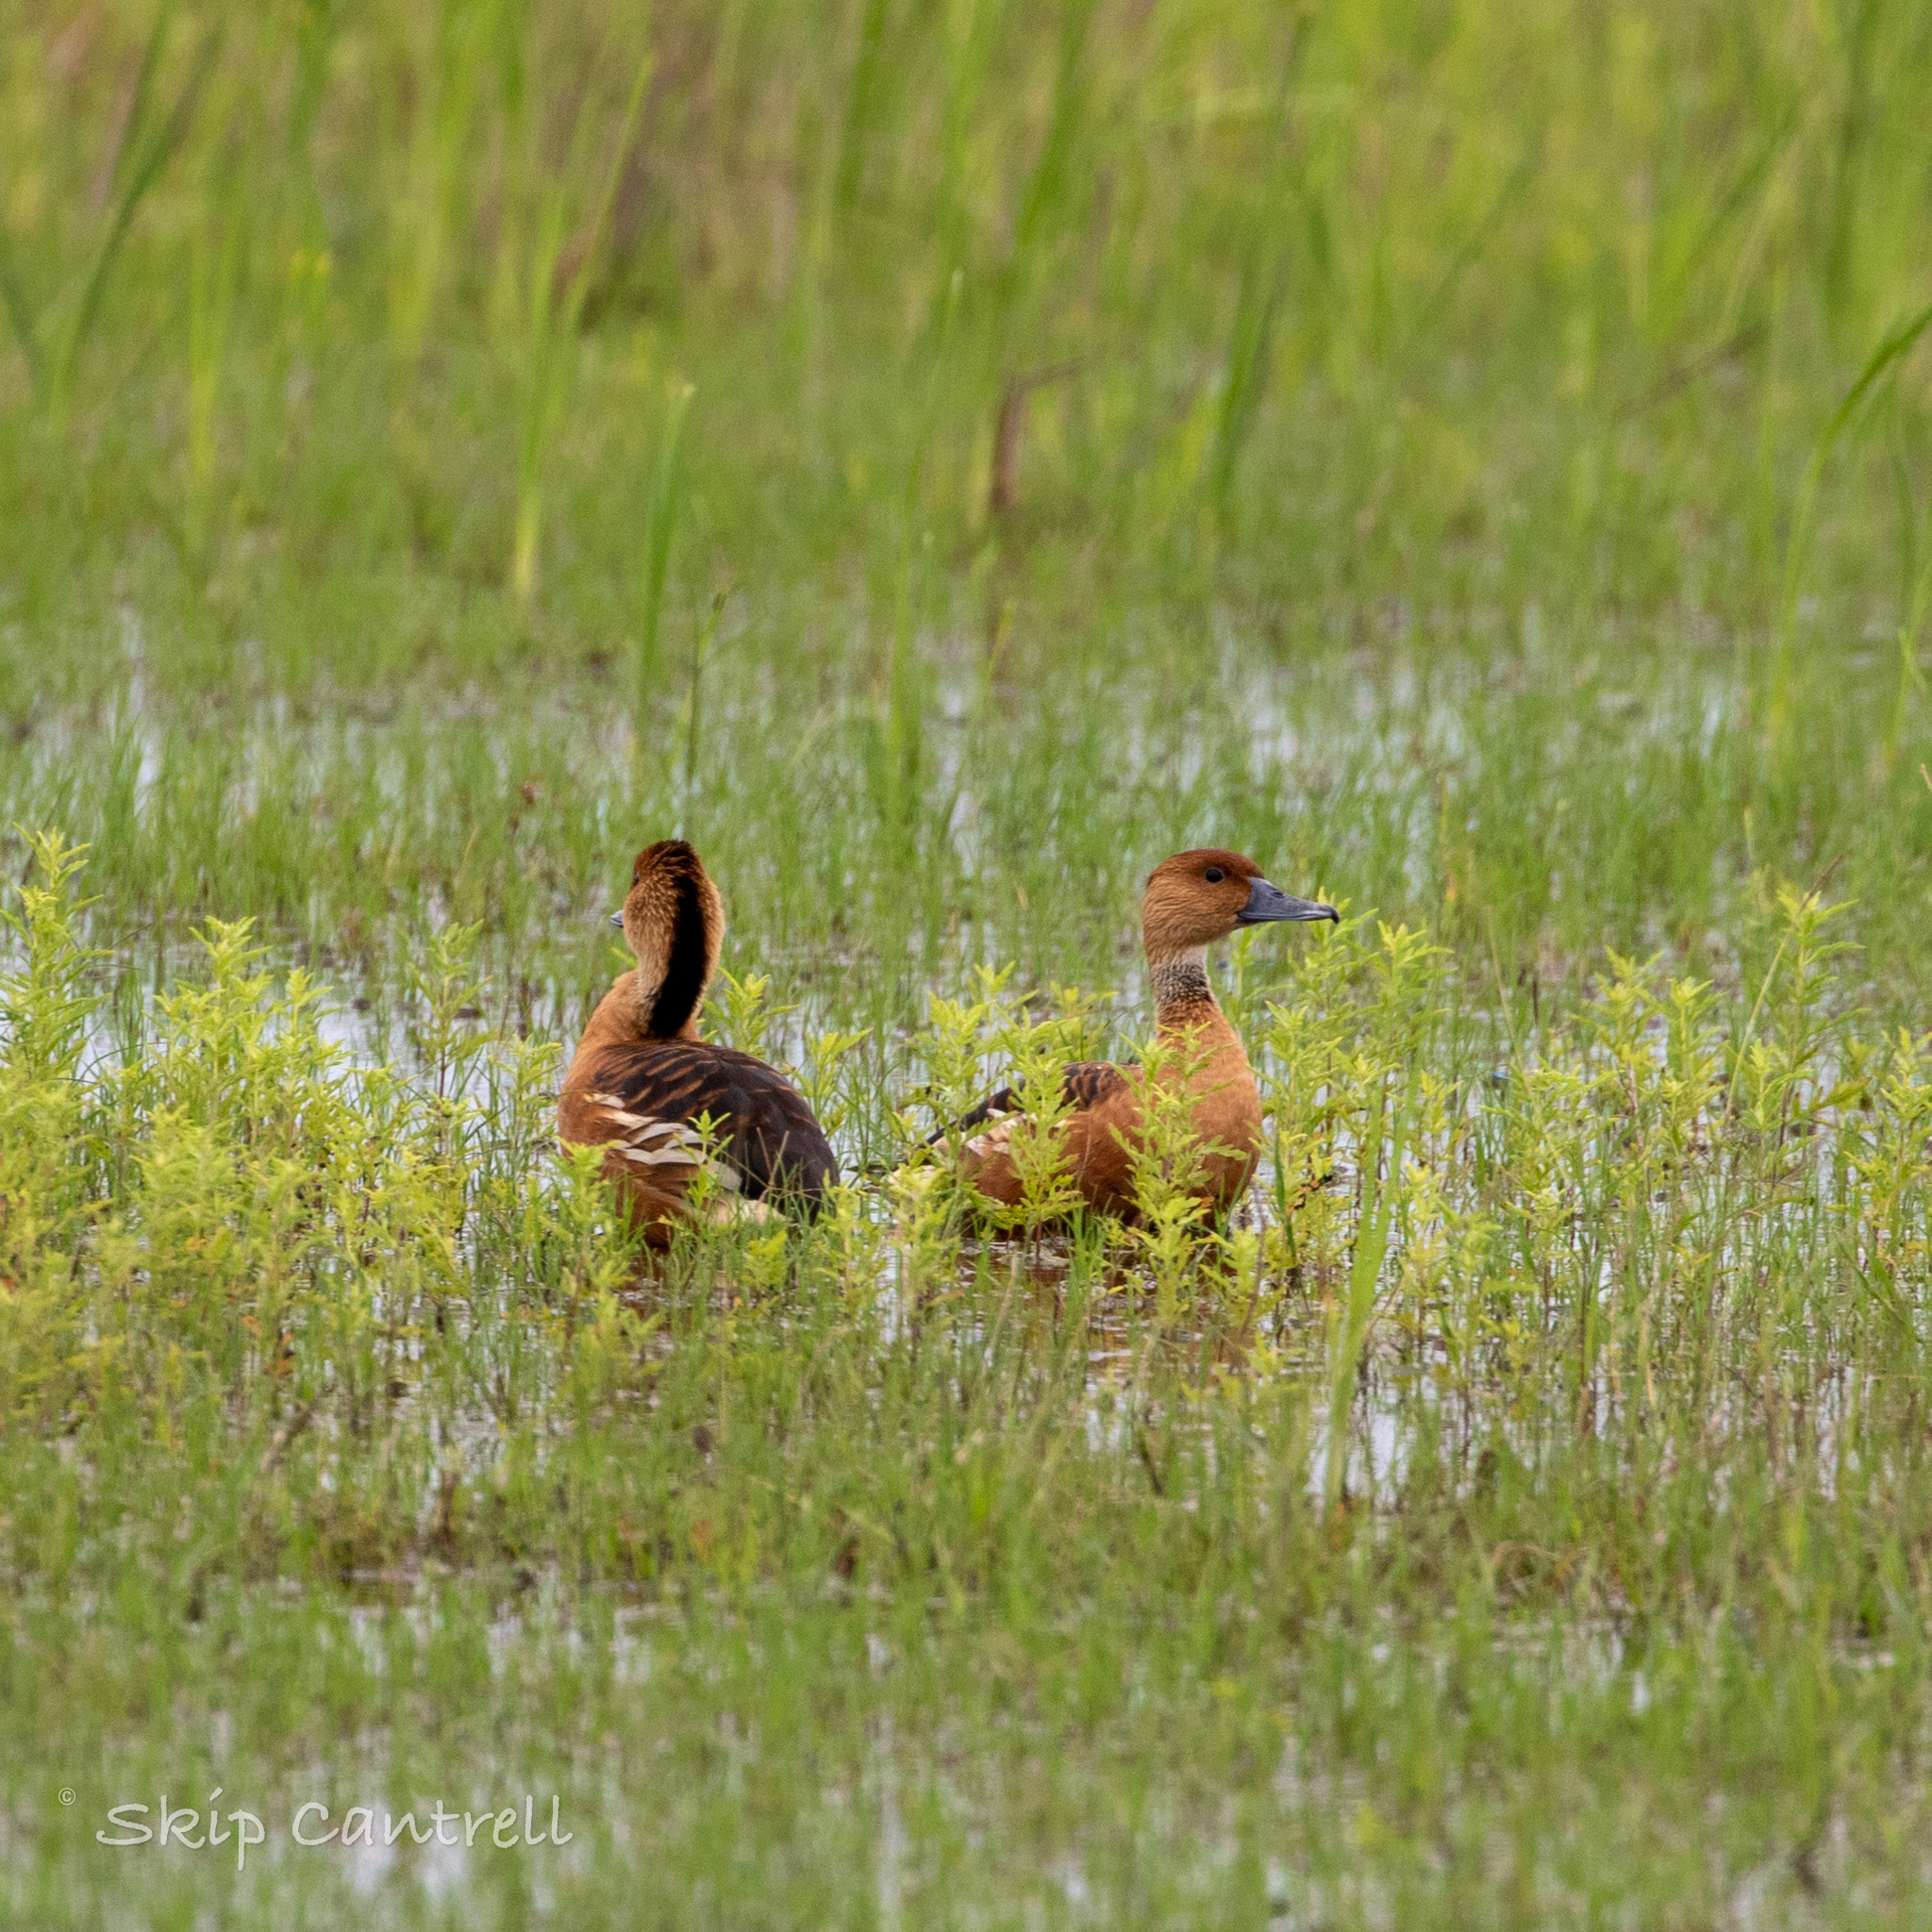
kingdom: Animalia
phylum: Chordata
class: Aves
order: Anseriformes
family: Anatidae
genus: Dendrocygna
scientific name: Dendrocygna bicolor
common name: Fulvous whistling duck
